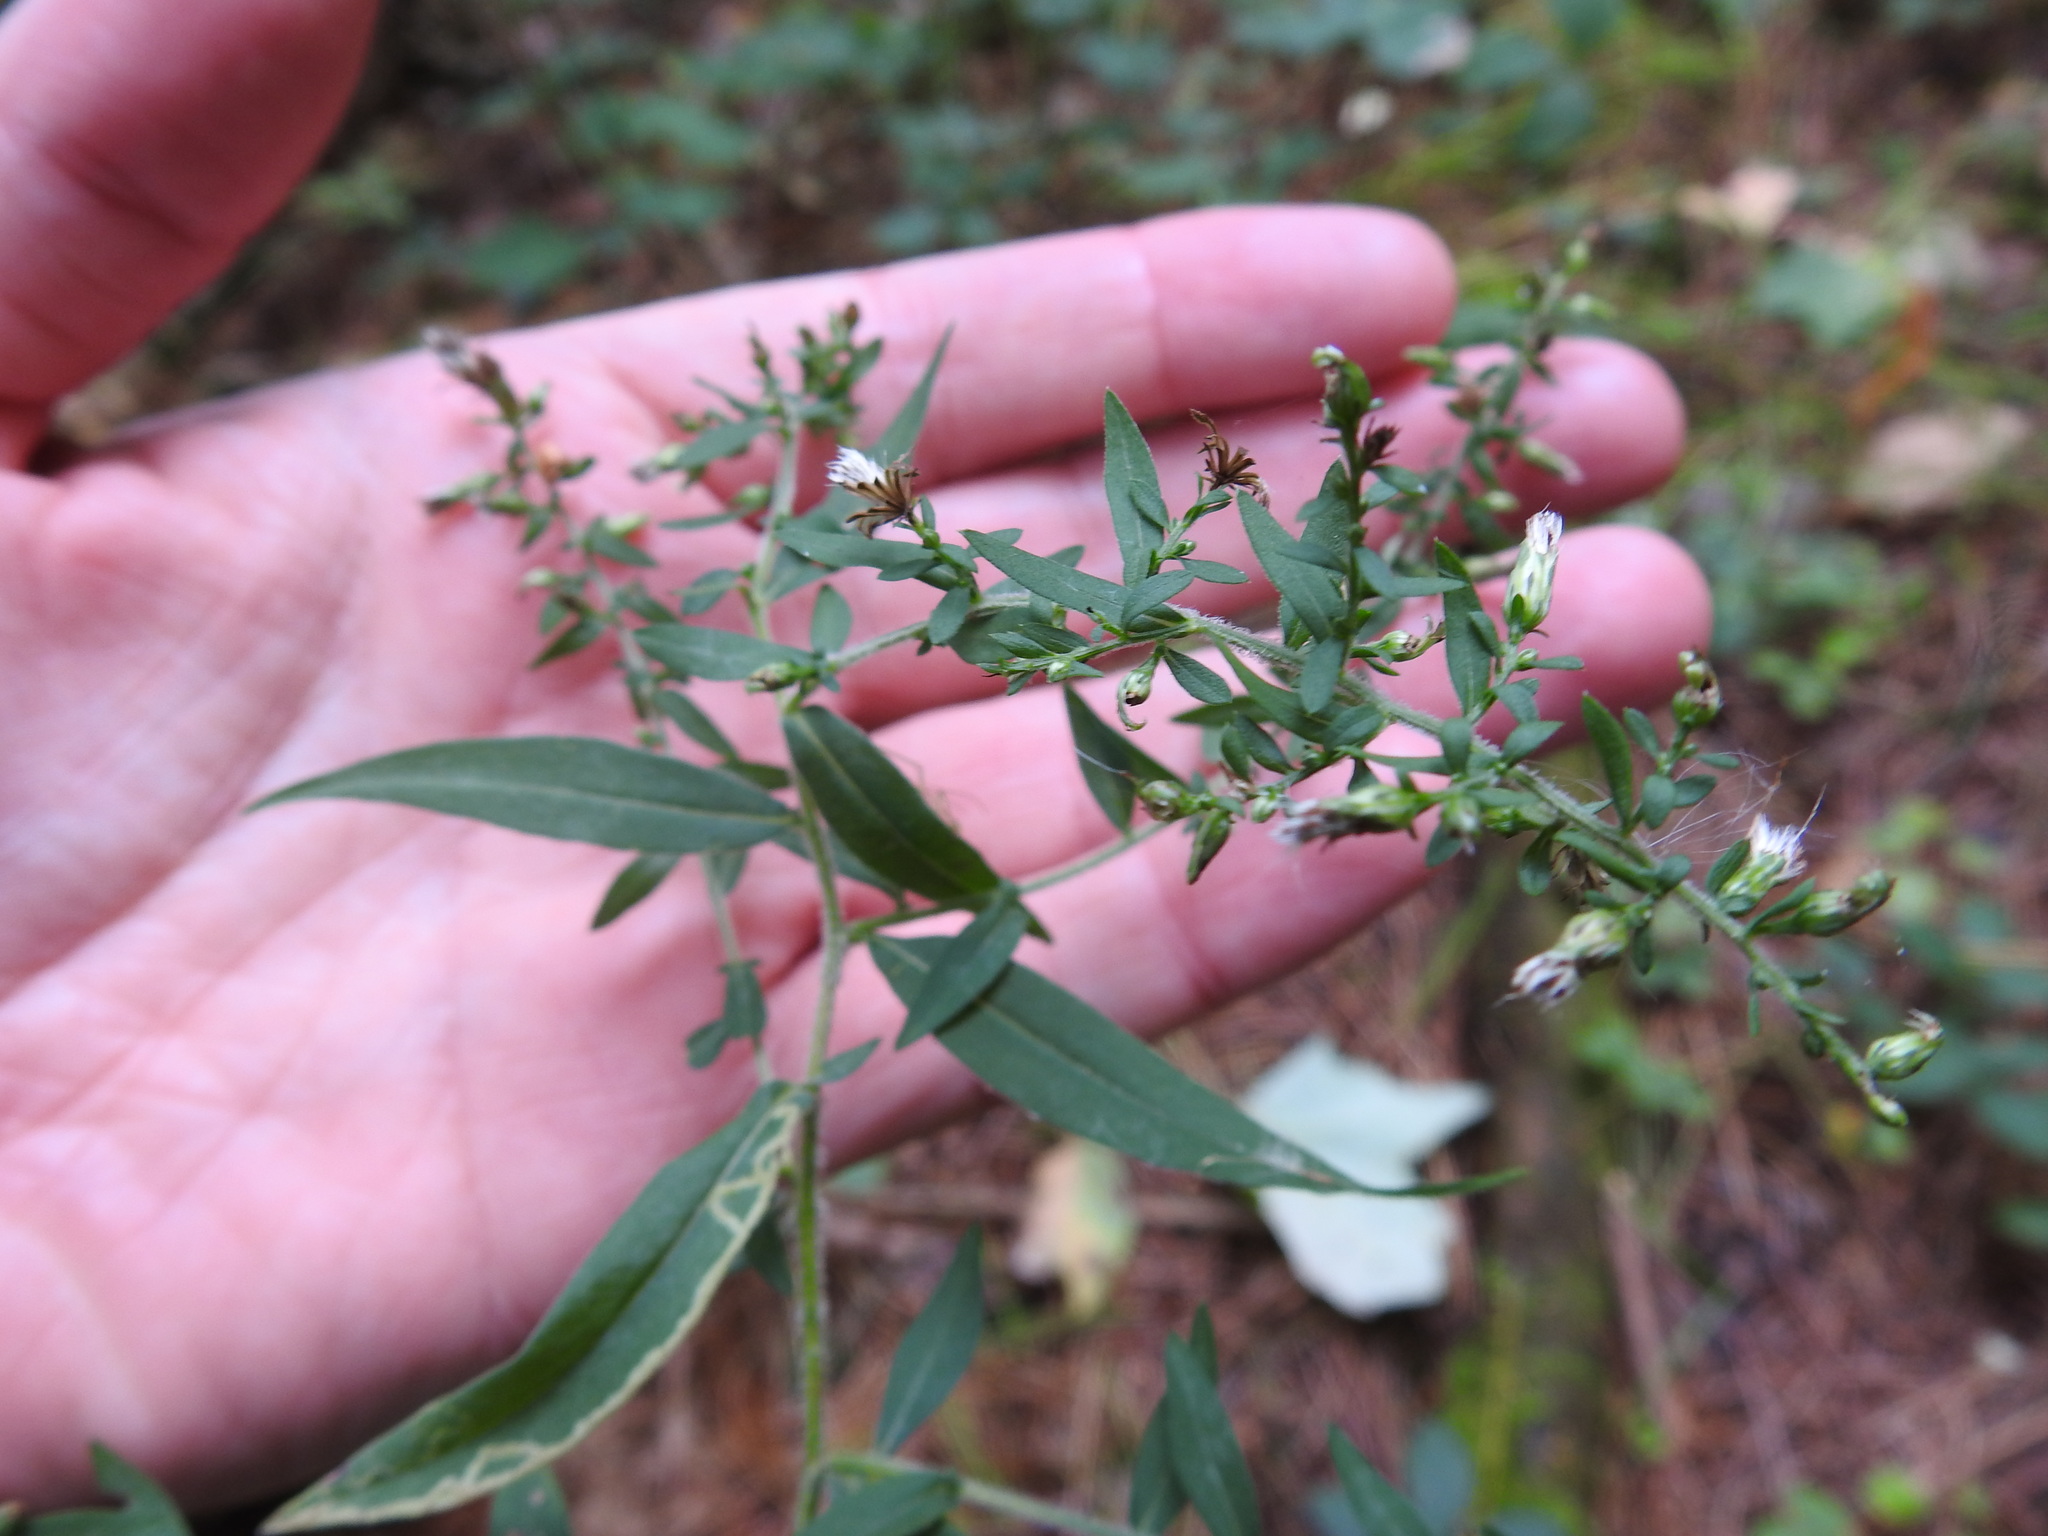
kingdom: Plantae
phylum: Tracheophyta
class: Magnoliopsida
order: Asterales
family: Asteraceae
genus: Symphyotrichum
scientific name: Symphyotrichum lateriflorum
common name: Calico aster
